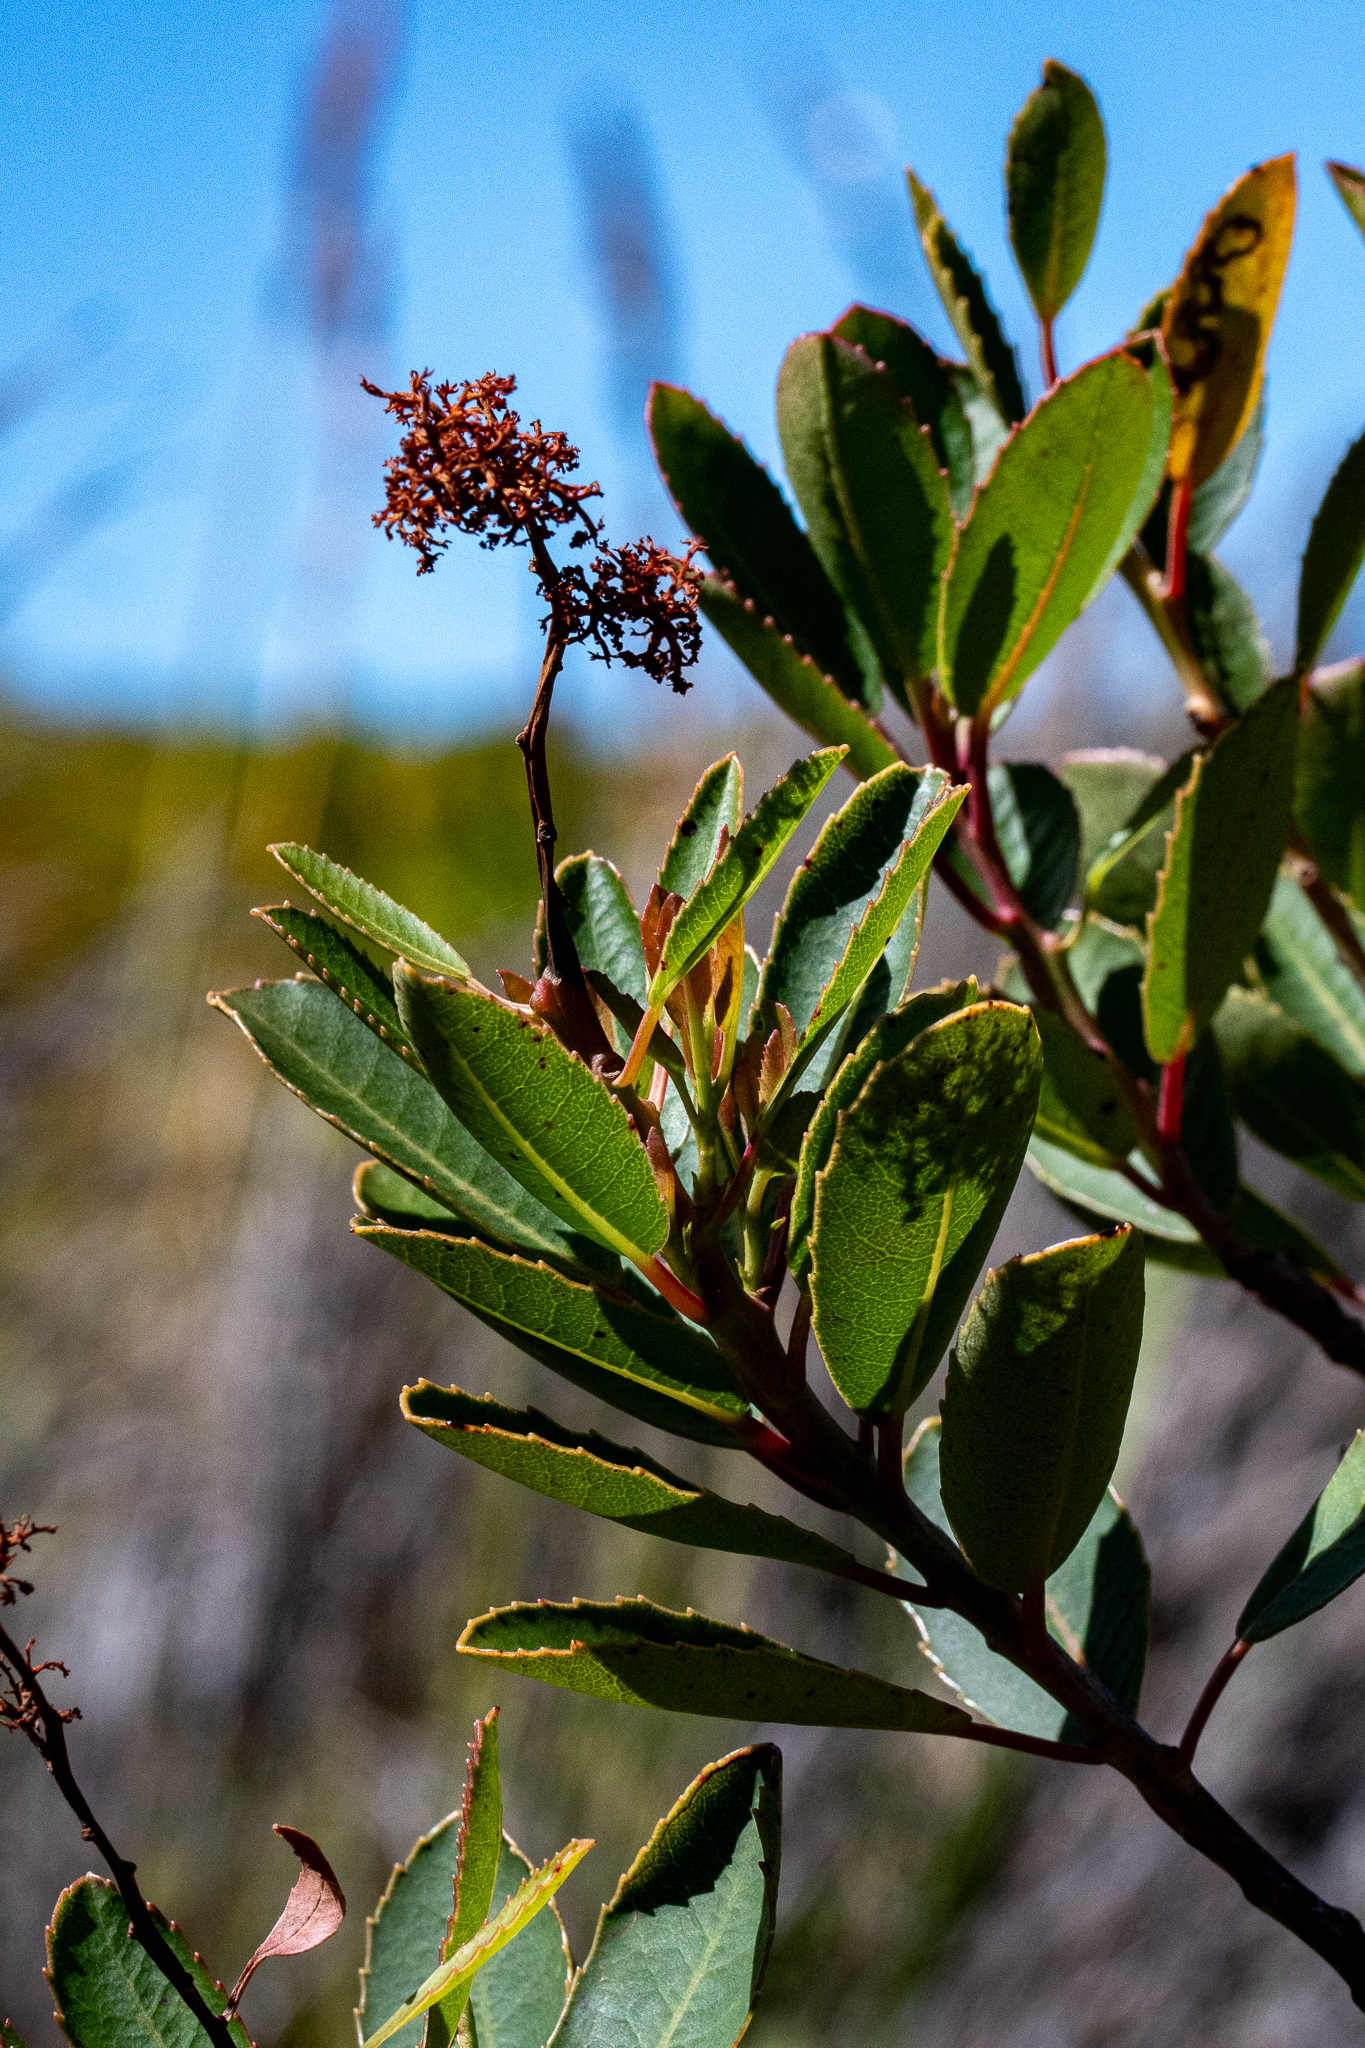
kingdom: Plantae
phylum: Tracheophyta
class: Magnoliopsida
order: Sapindales
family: Anacardiaceae
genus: Laurophyllus
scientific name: Laurophyllus capensis
